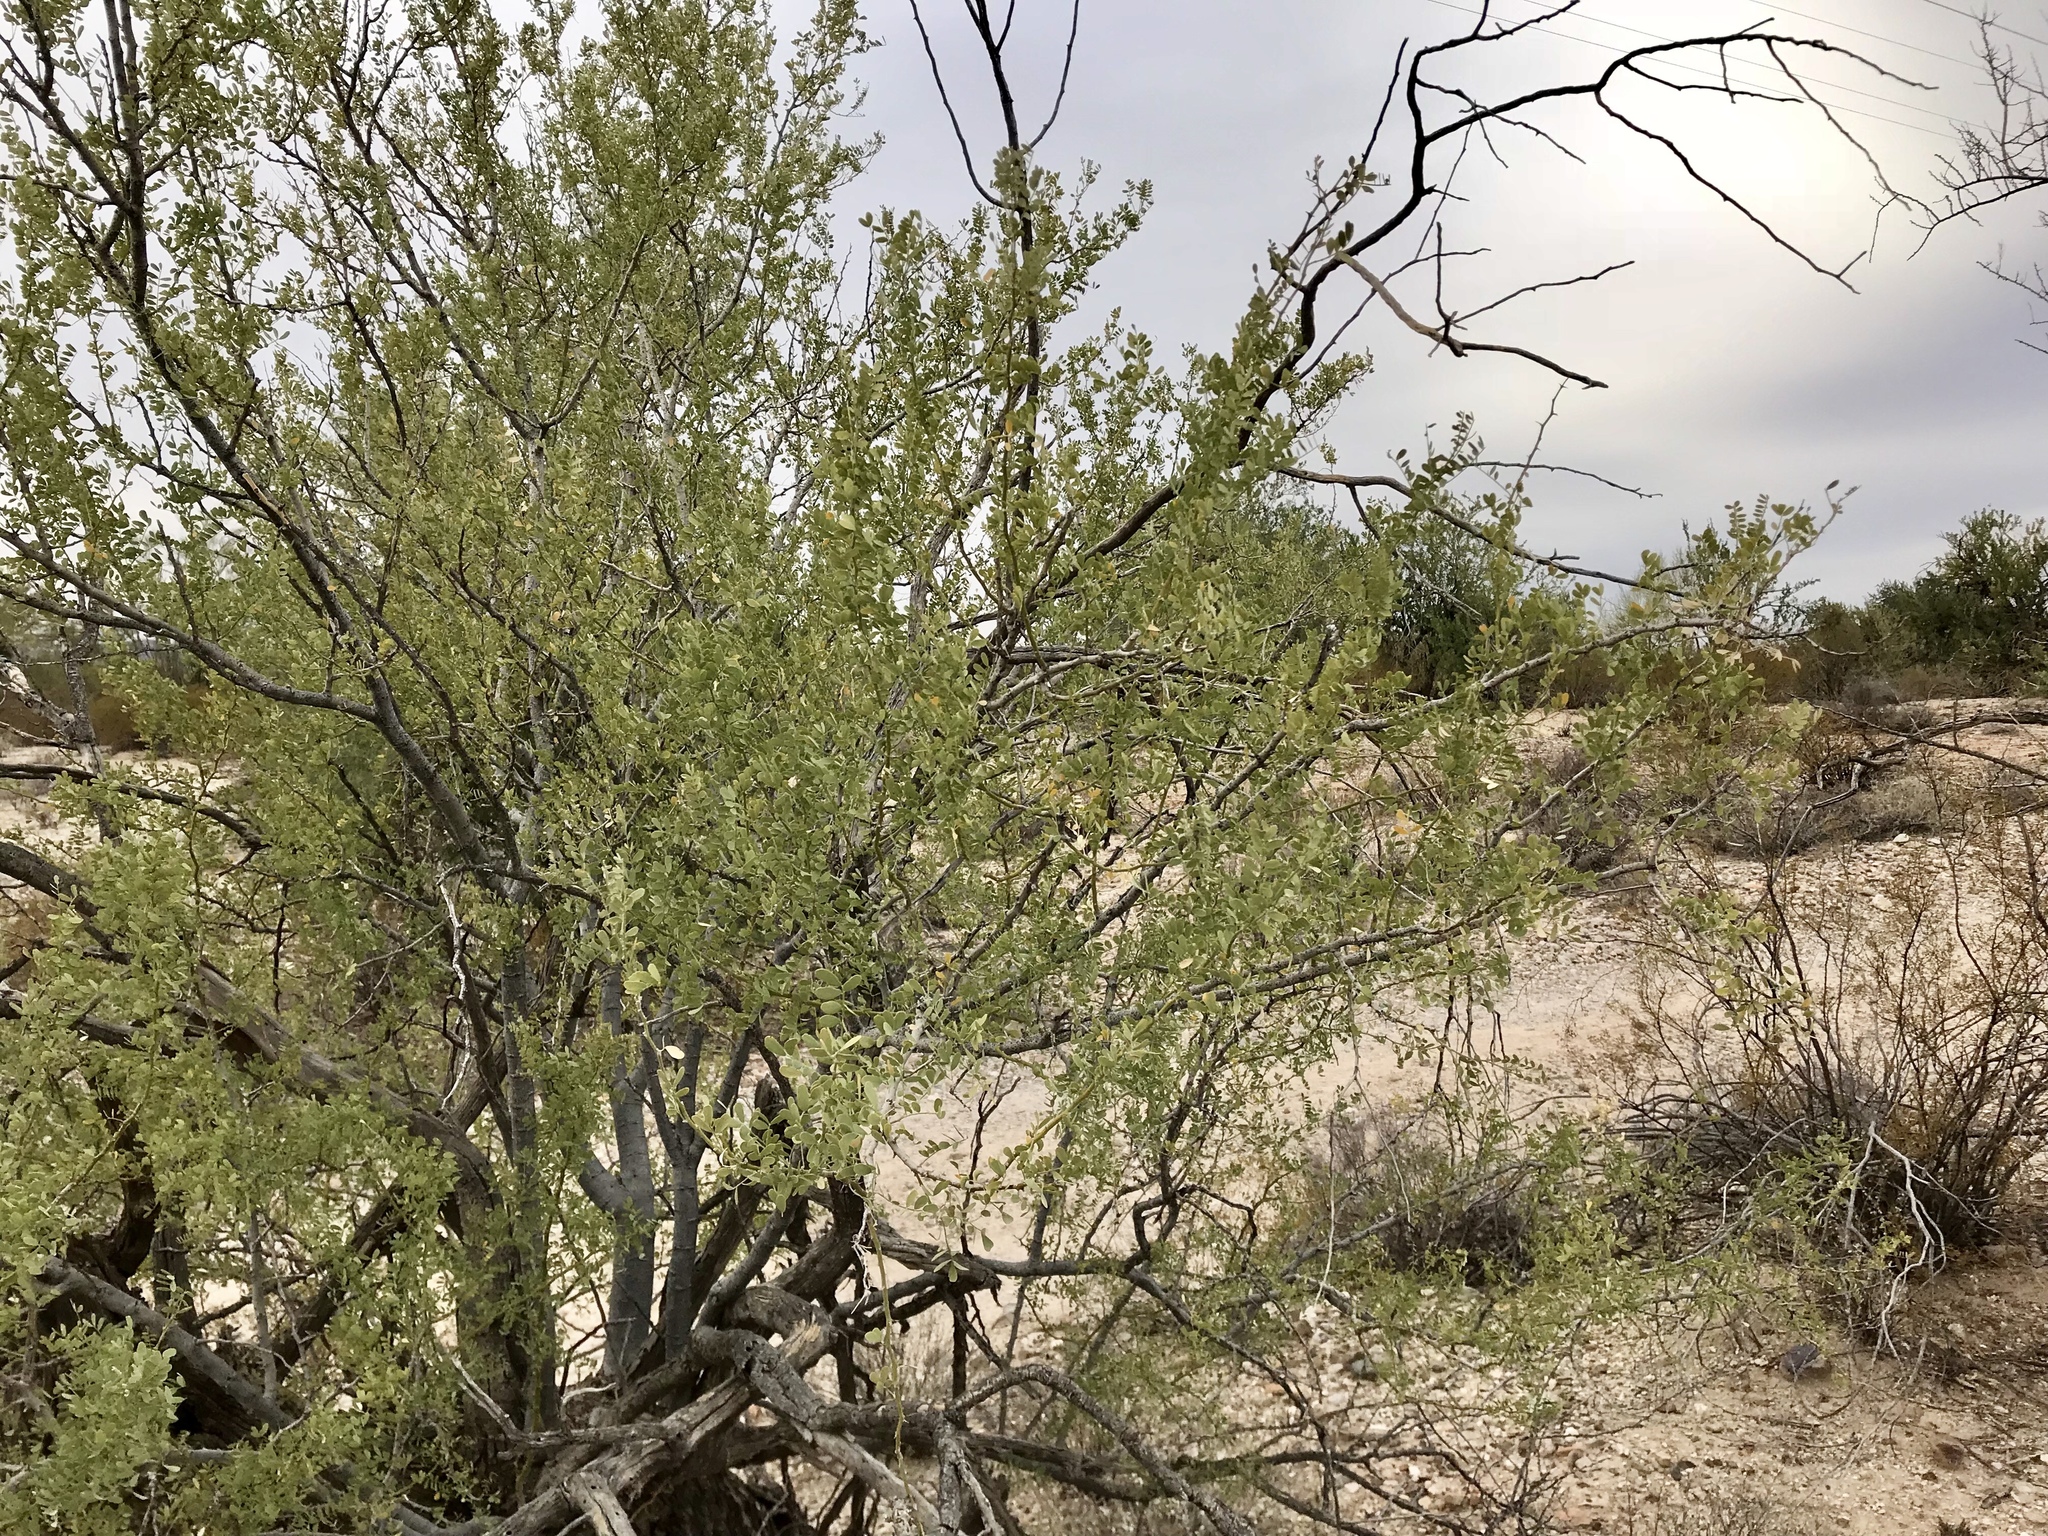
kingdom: Plantae
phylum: Tracheophyta
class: Magnoliopsida
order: Fabales
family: Fabaceae
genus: Olneya
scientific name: Olneya tesota
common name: Desert ironwood
